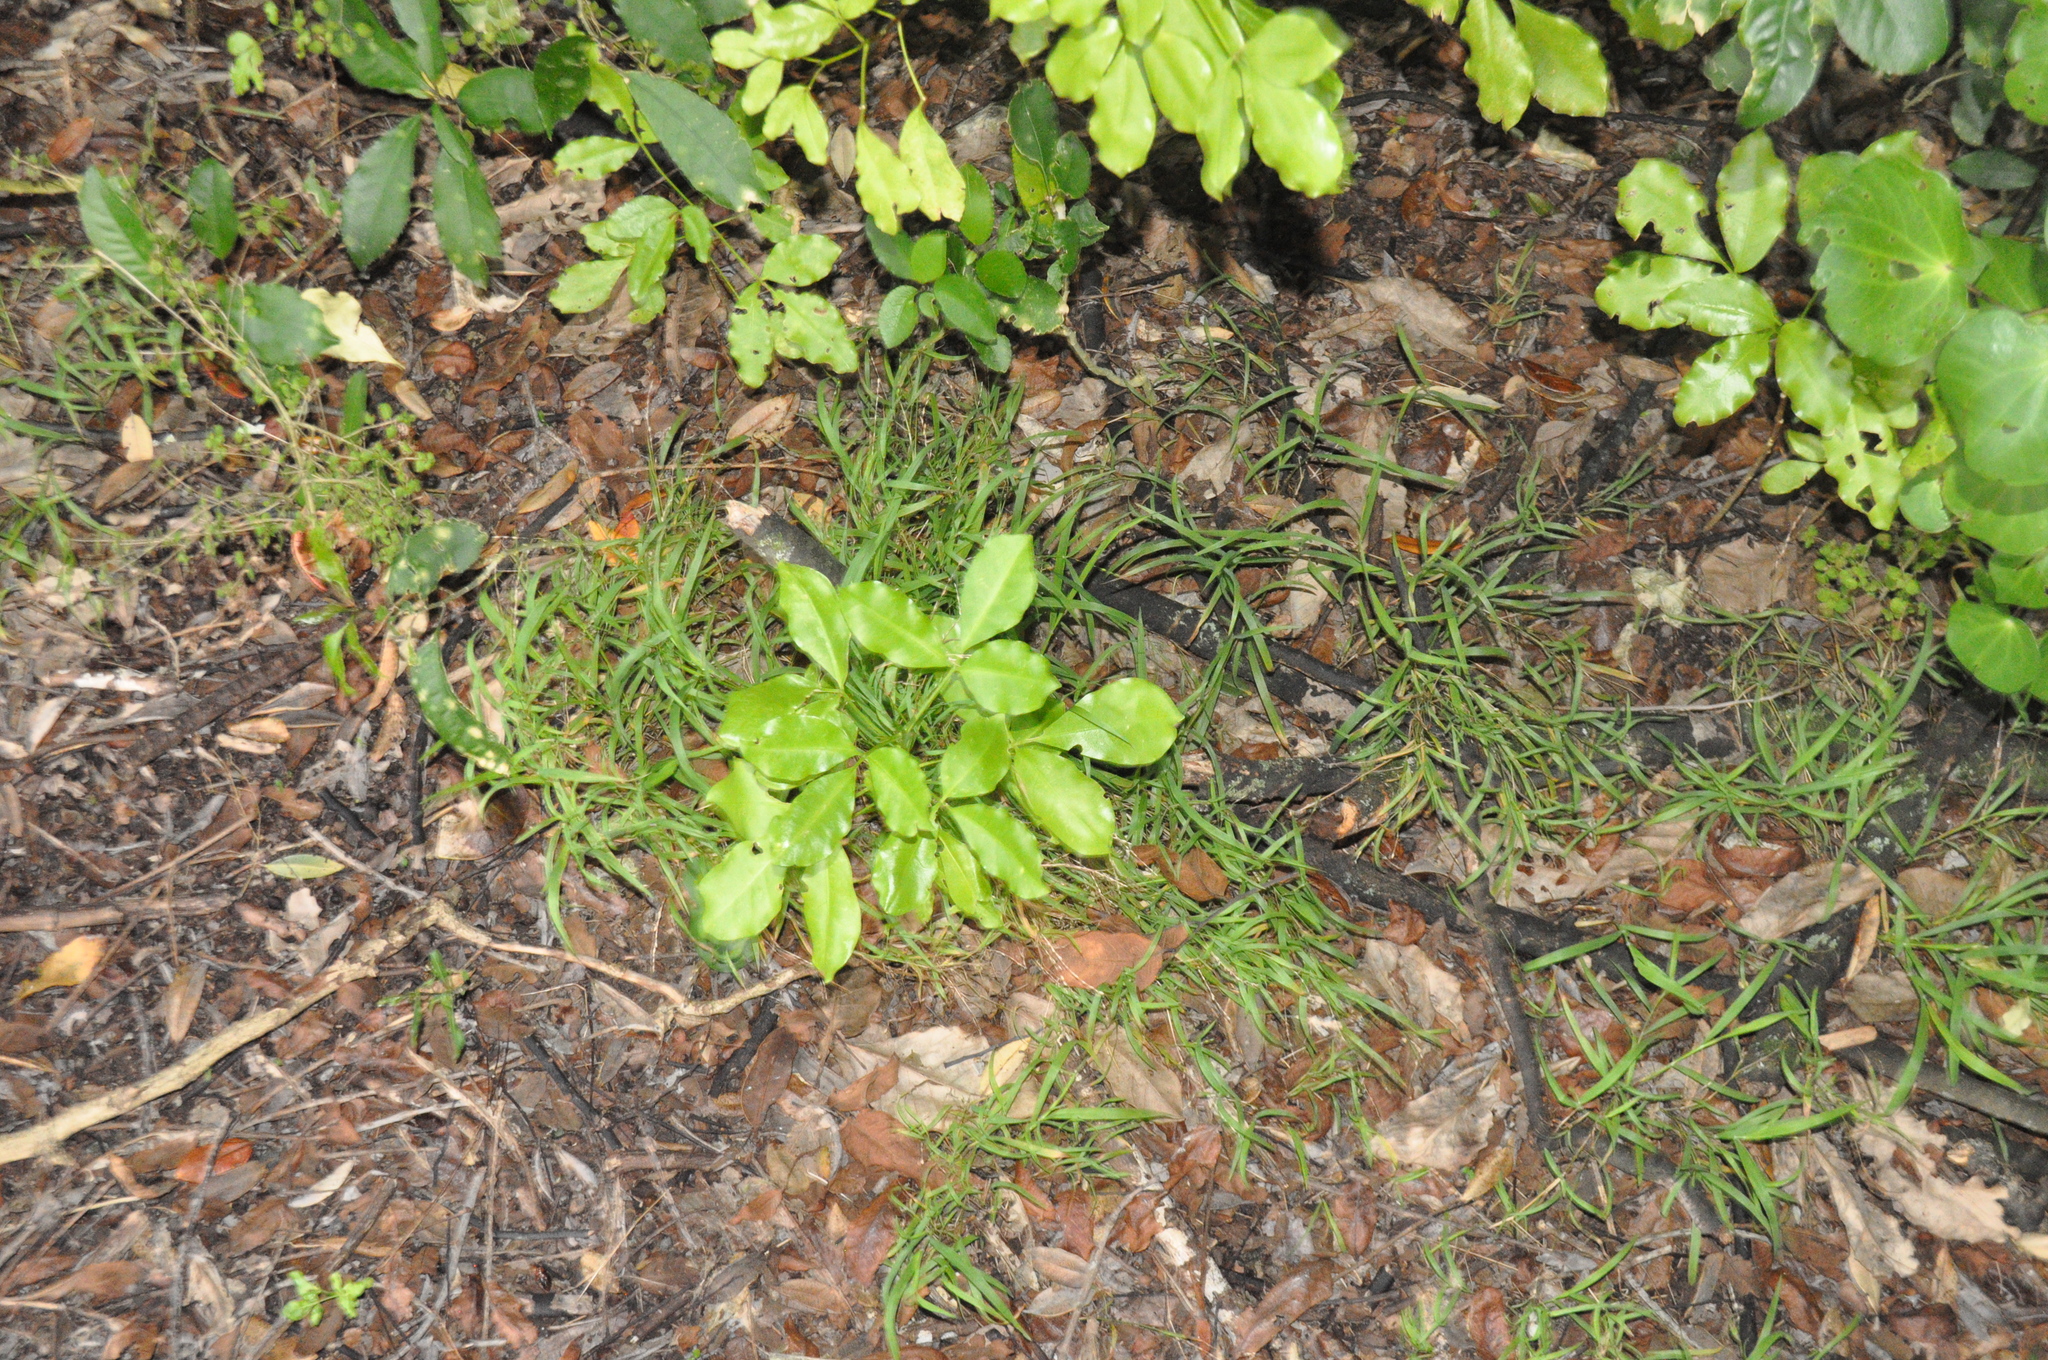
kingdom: Plantae
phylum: Tracheophyta
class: Magnoliopsida
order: Sapindales
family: Rutaceae
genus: Melicope
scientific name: Melicope ternata
